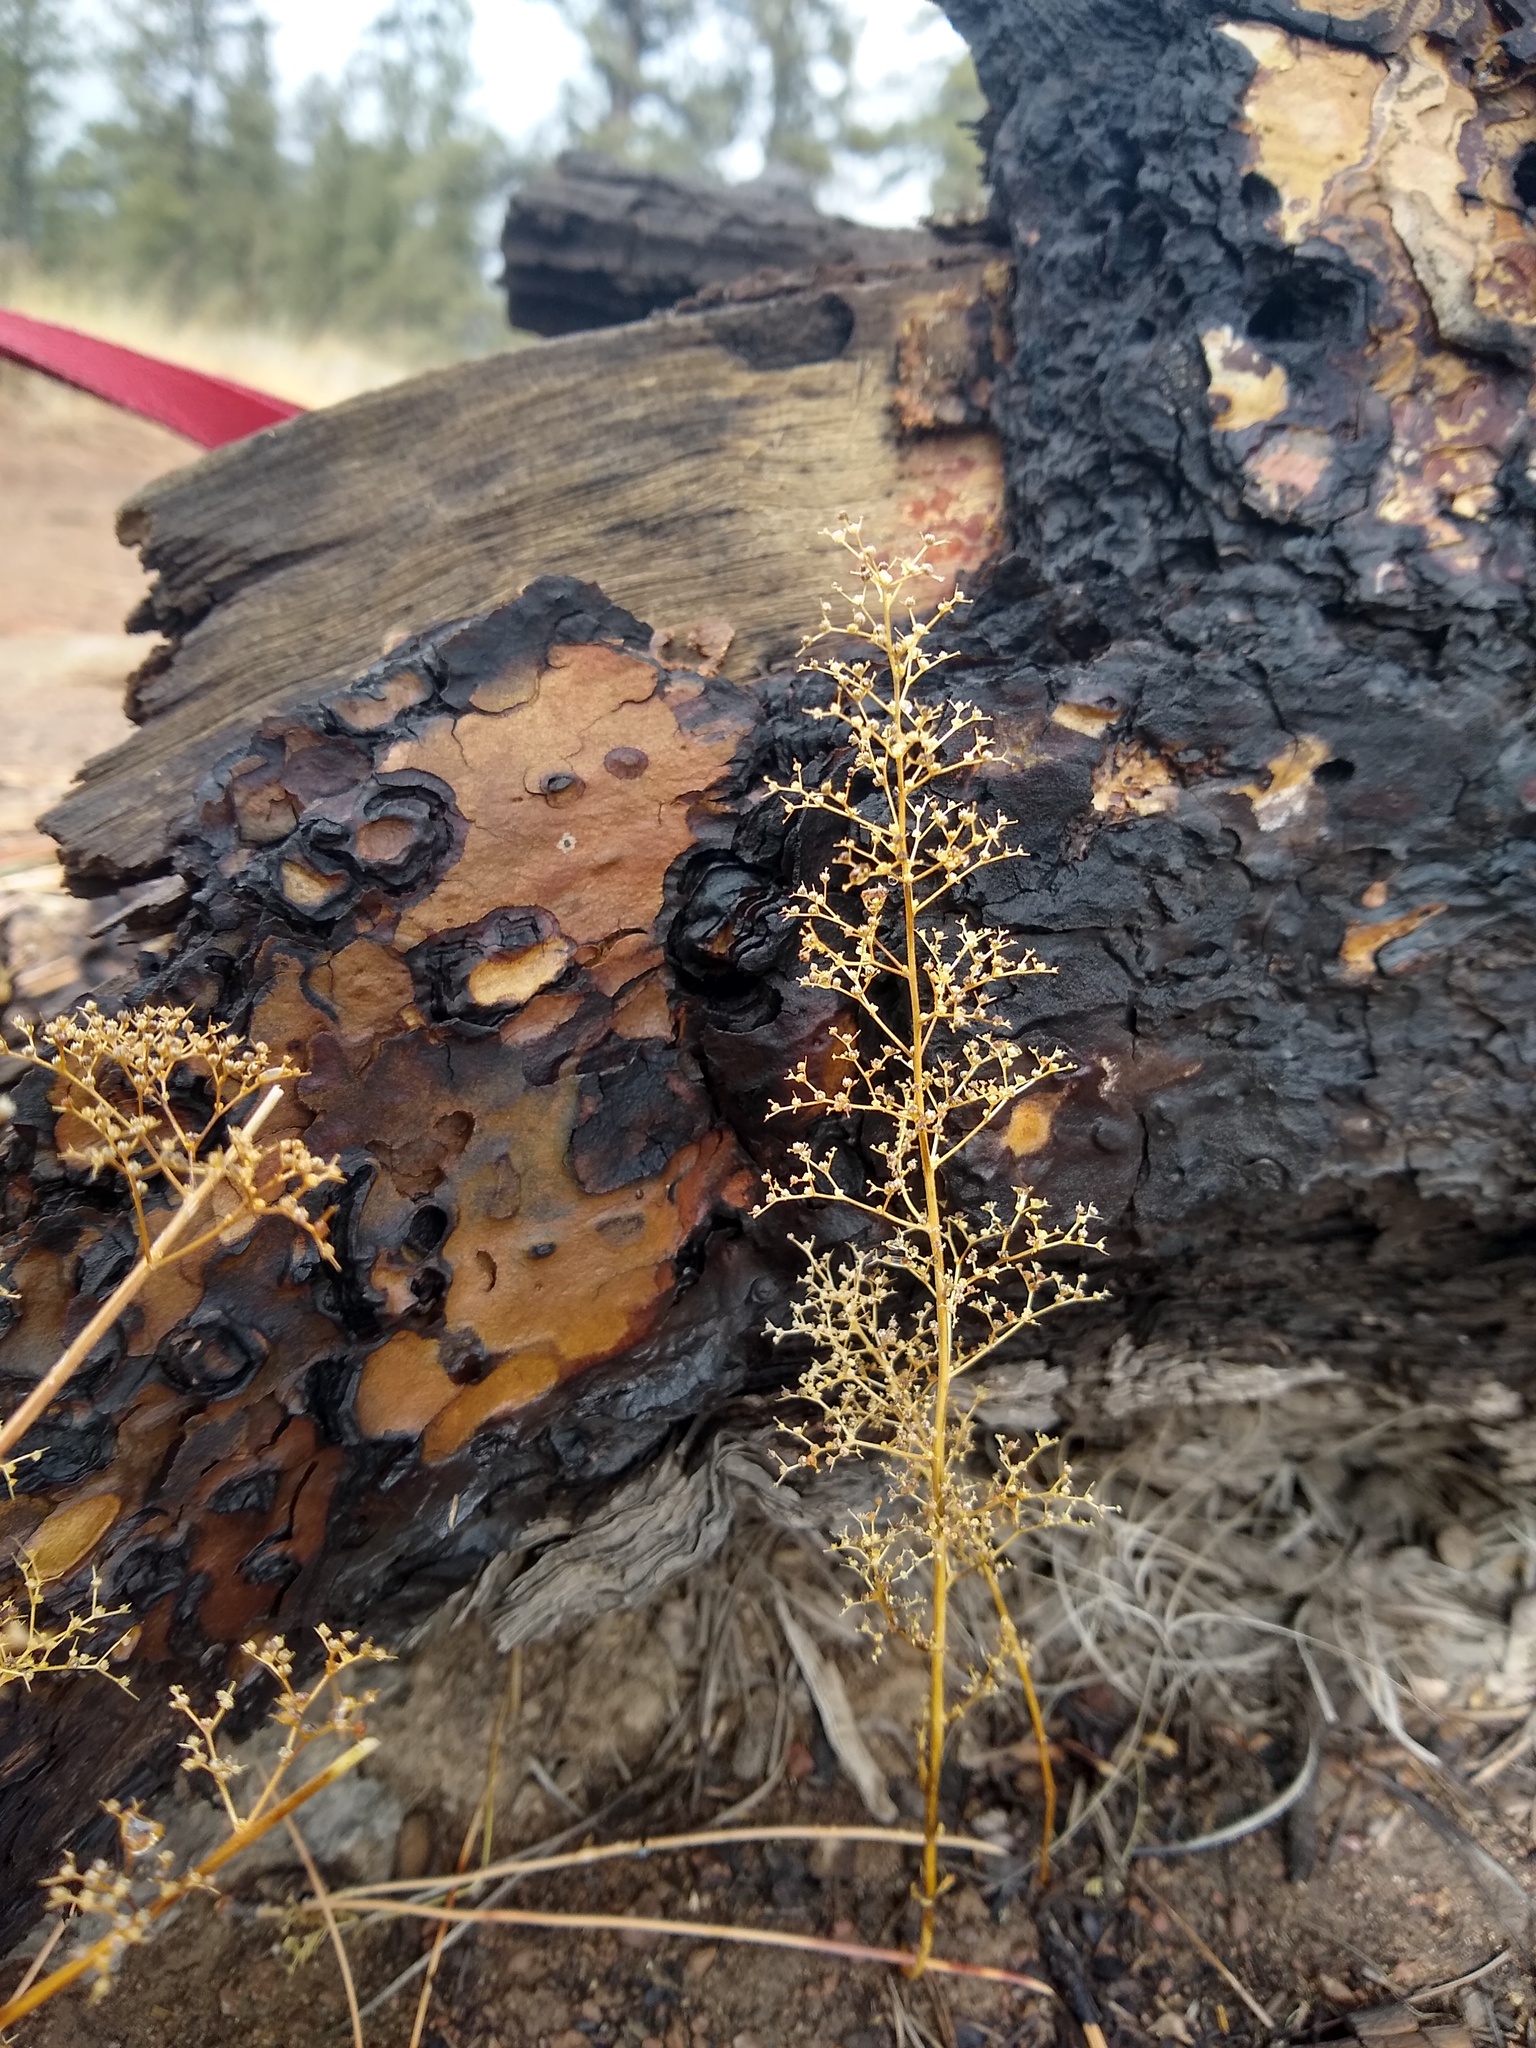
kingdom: Plantae
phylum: Tracheophyta
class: Magnoliopsida
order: Caryophyllales
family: Amaranthaceae
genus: Dysphania
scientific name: Dysphania incisa
